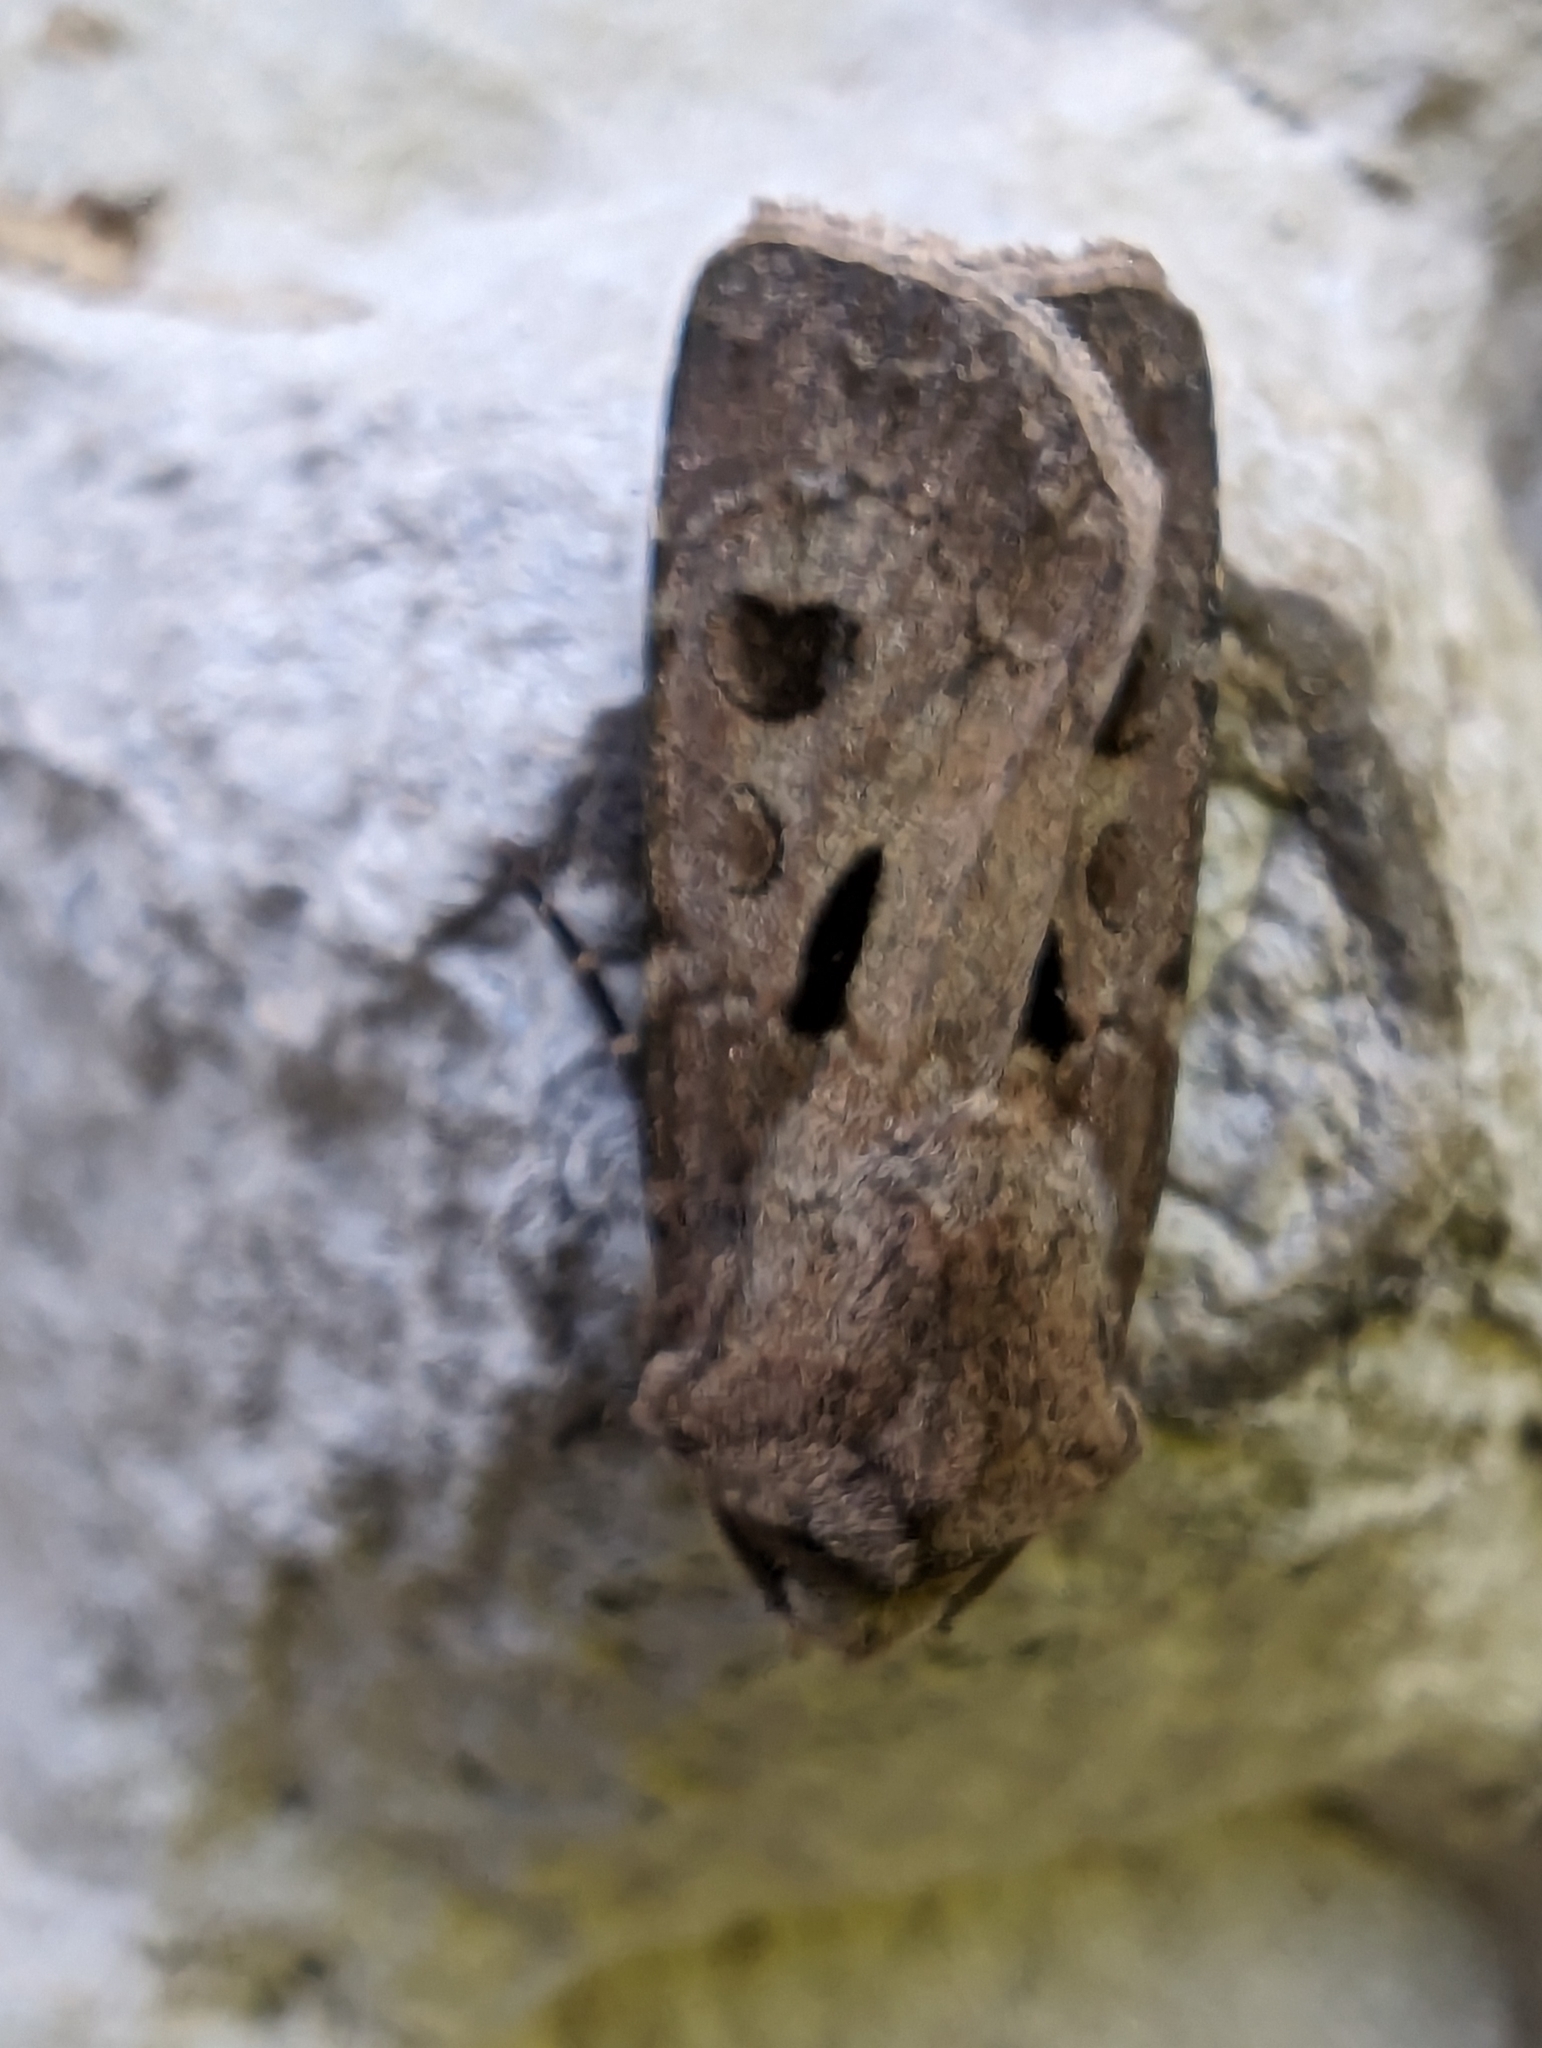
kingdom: Animalia
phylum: Arthropoda
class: Insecta
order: Lepidoptera
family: Noctuidae
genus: Agrotis
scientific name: Agrotis exclamationis
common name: Heart and dart
